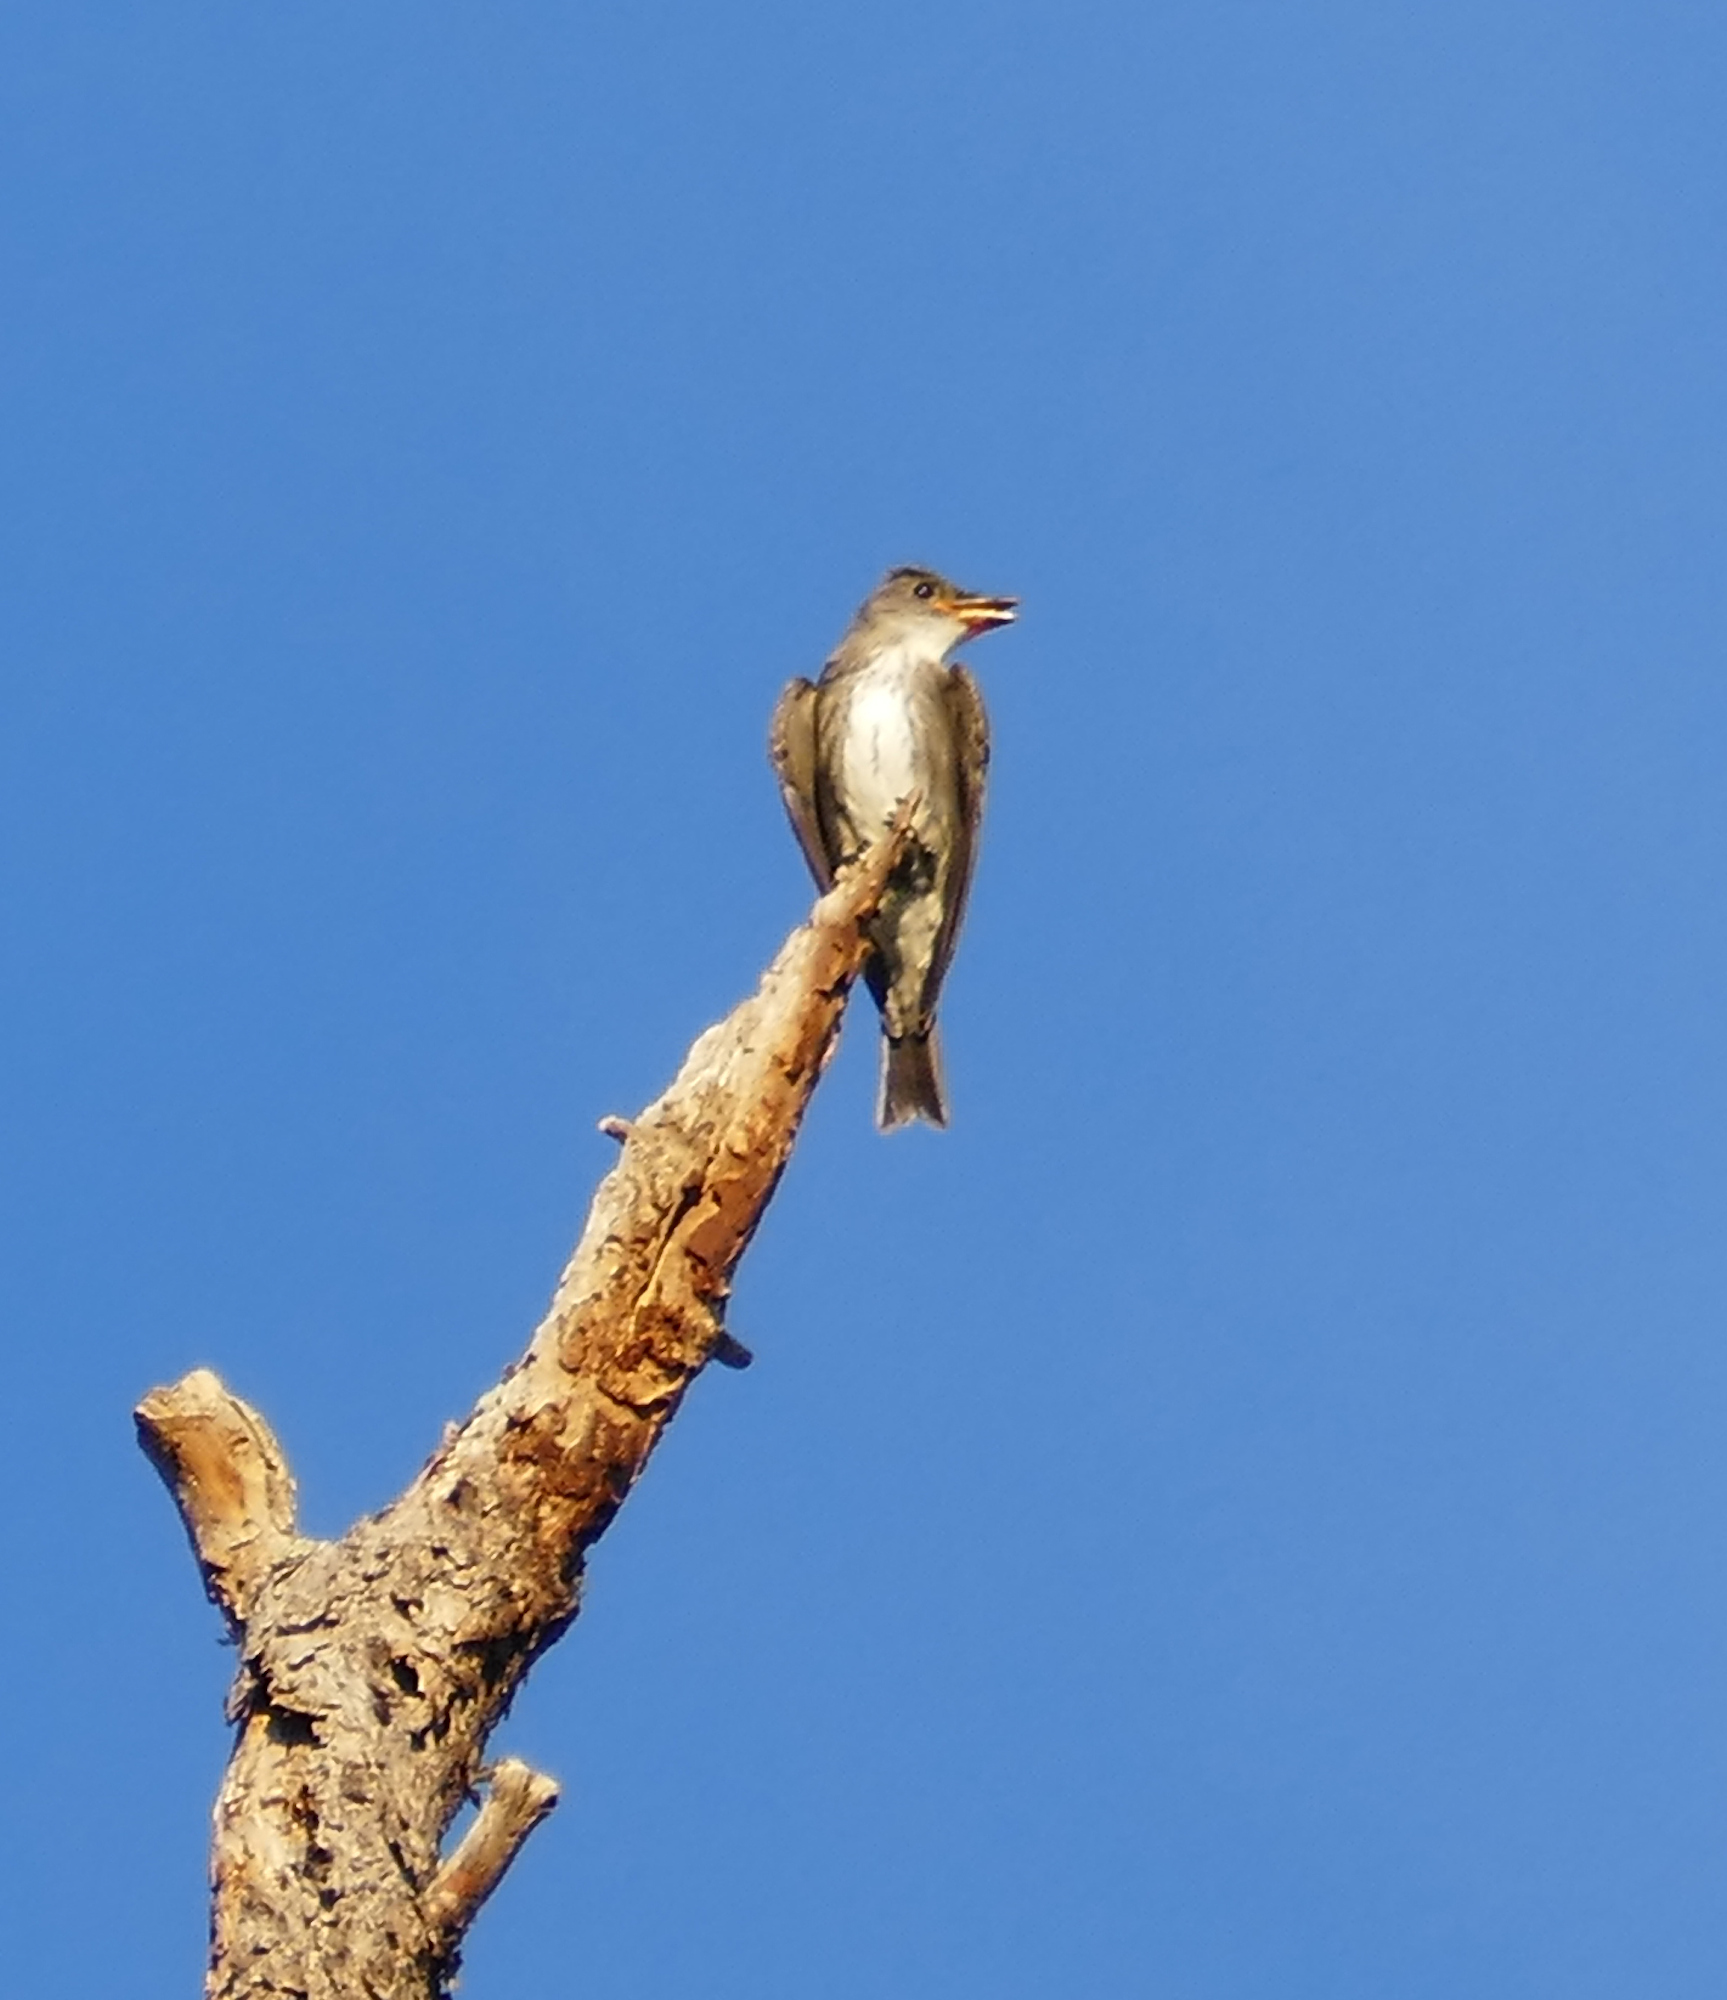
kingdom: Animalia
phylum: Chordata
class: Aves
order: Passeriformes
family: Tyrannidae
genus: Contopus
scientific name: Contopus cooperi
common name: Olive-sided flycatcher
